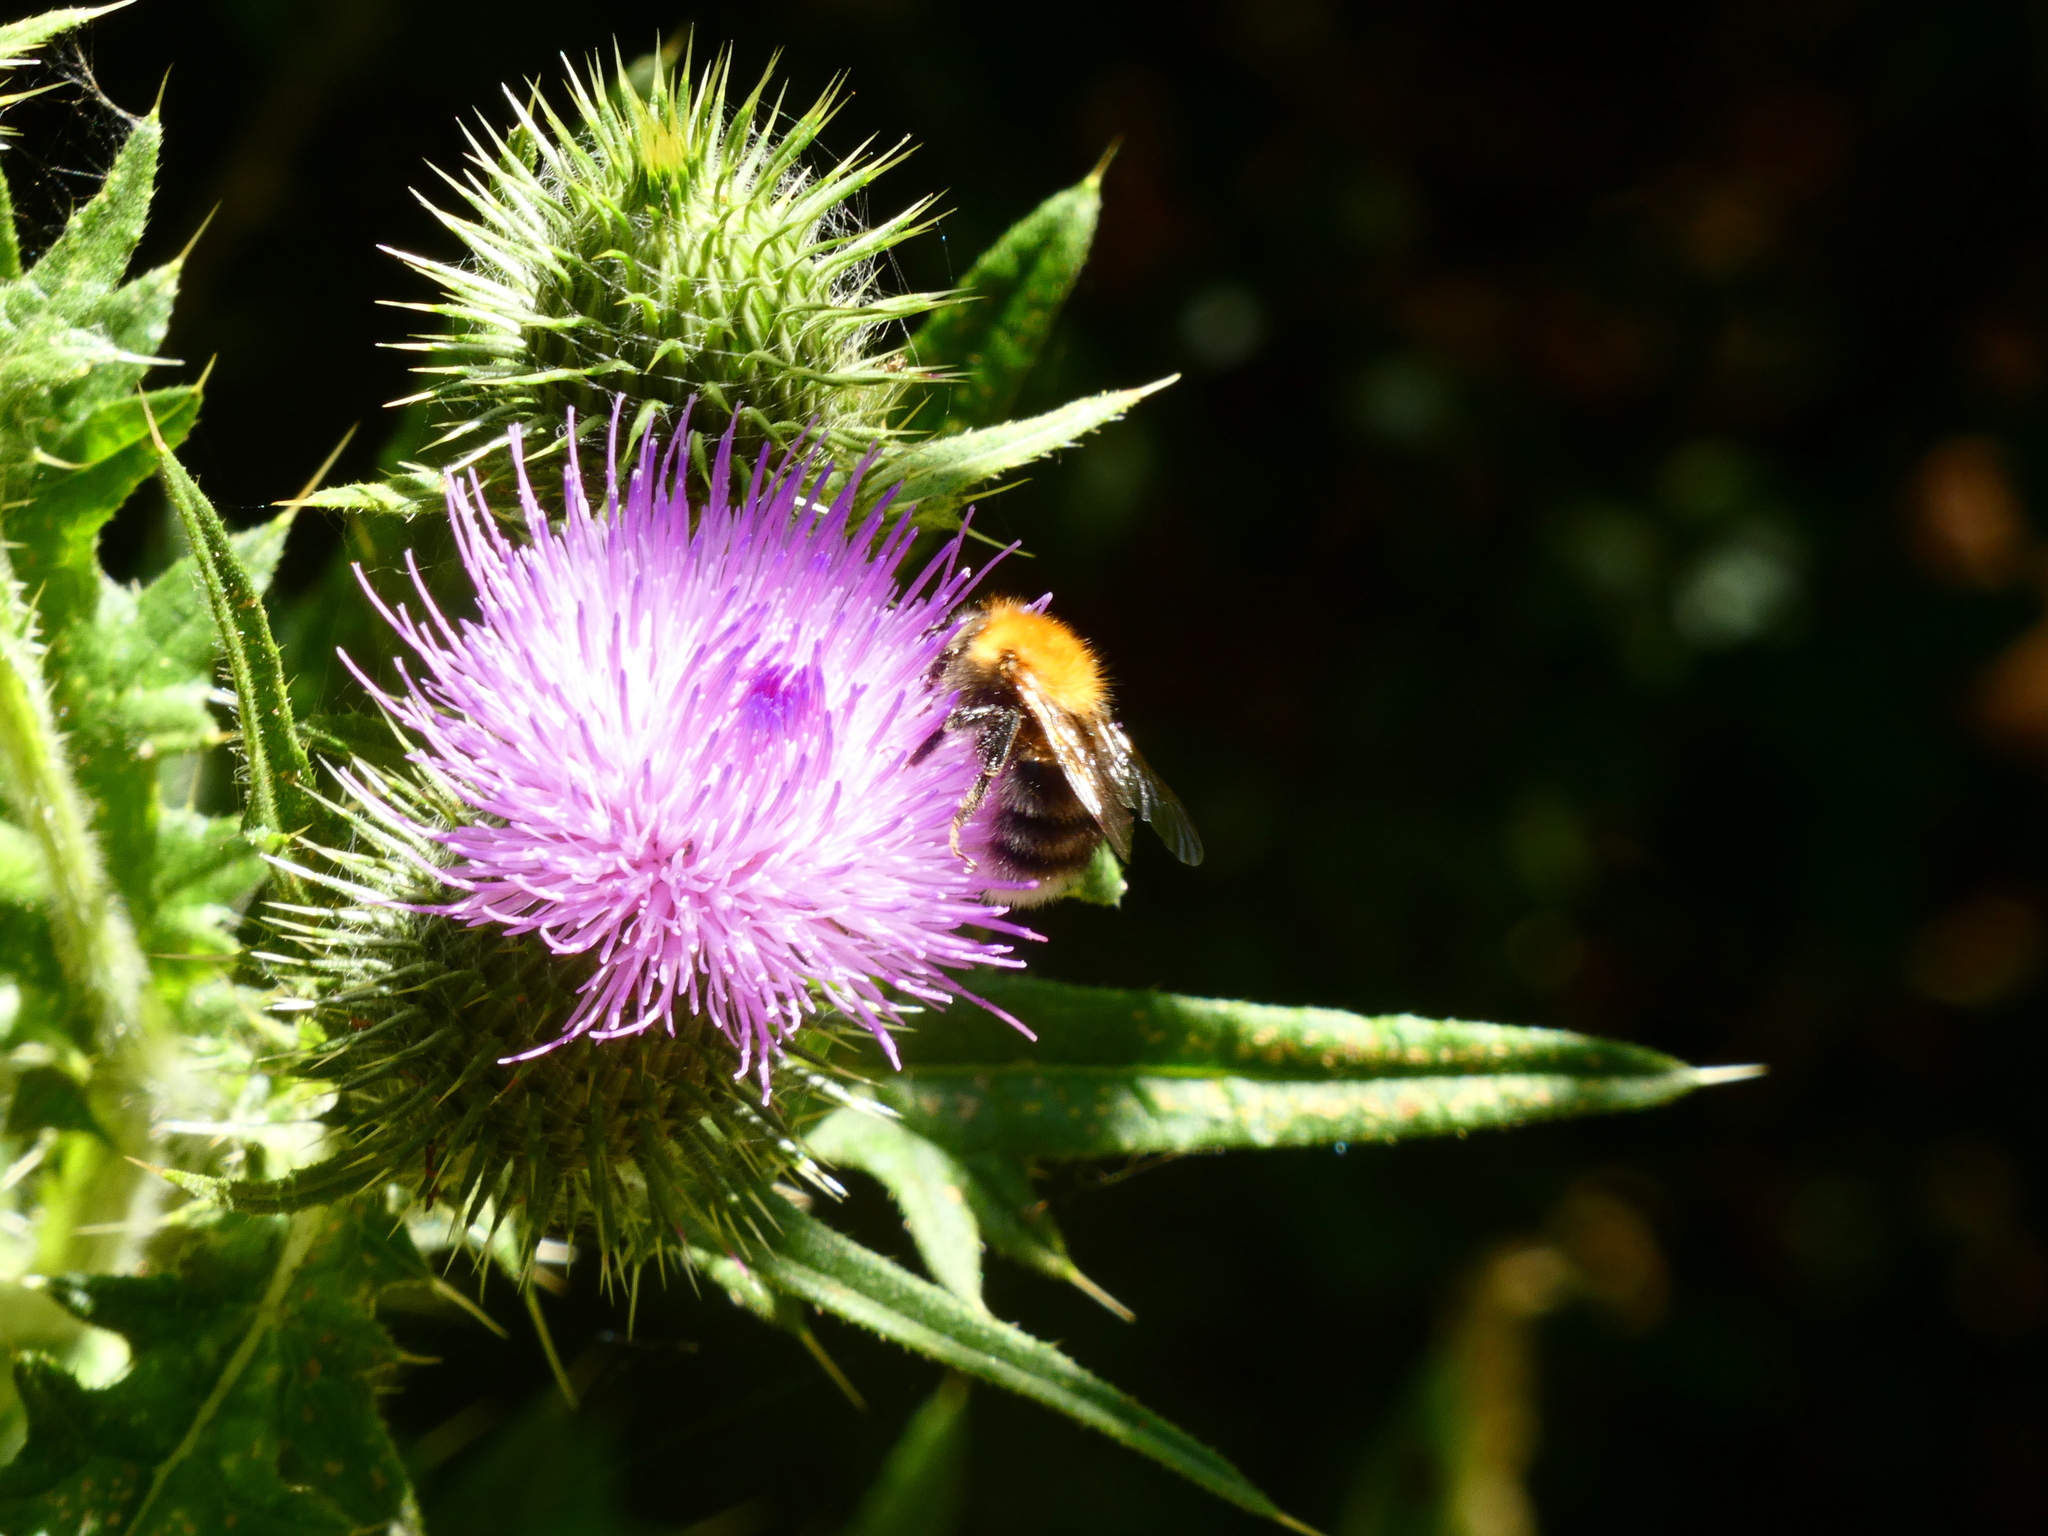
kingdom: Animalia
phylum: Arthropoda
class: Insecta
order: Hymenoptera
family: Apidae
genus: Bombus
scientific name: Bombus pascuorum
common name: Common carder bee
